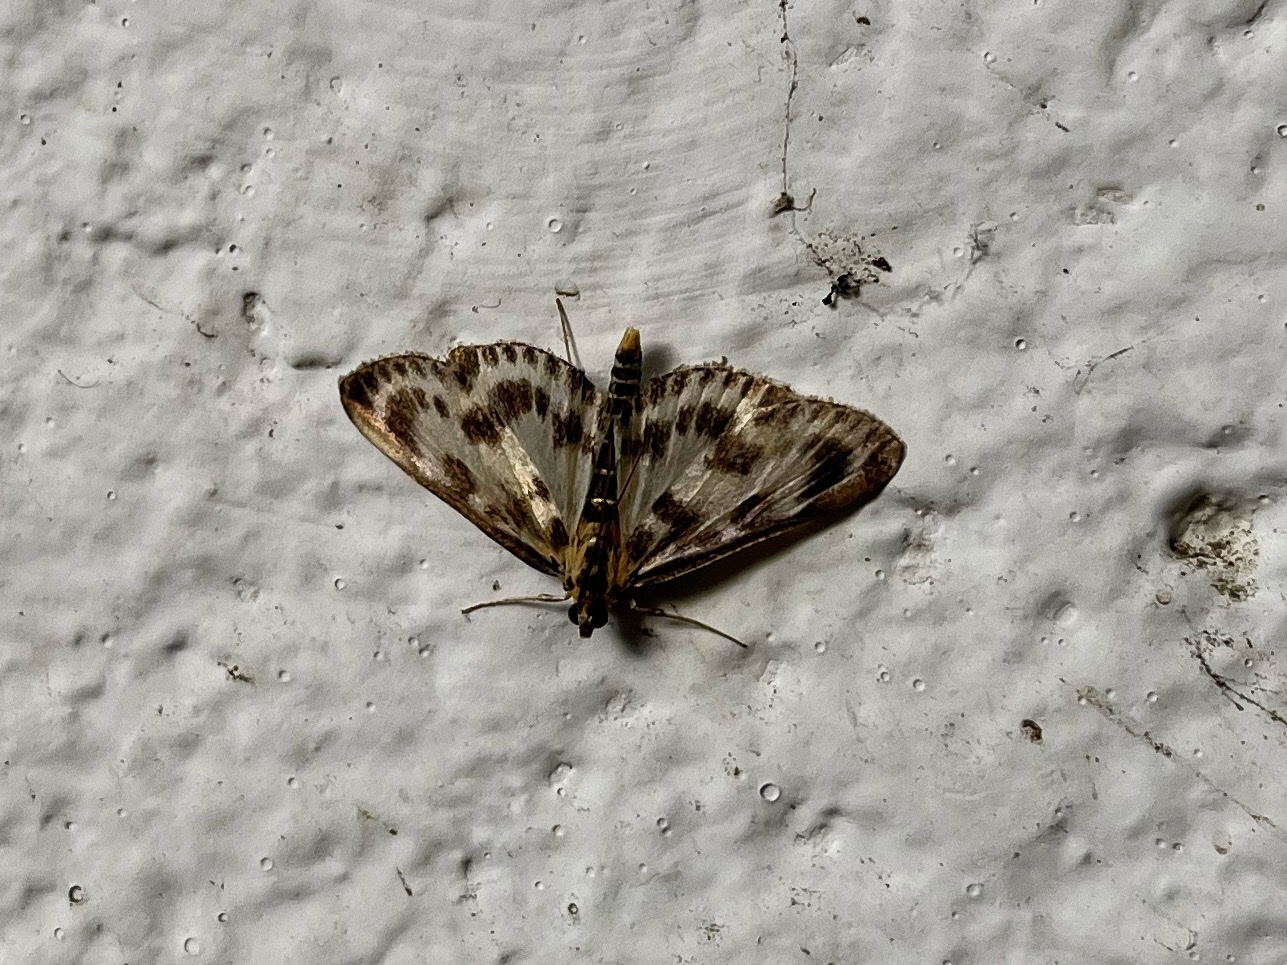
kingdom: Animalia
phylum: Arthropoda
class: Insecta
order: Lepidoptera
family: Crambidae
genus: Anania
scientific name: Anania hortulata
